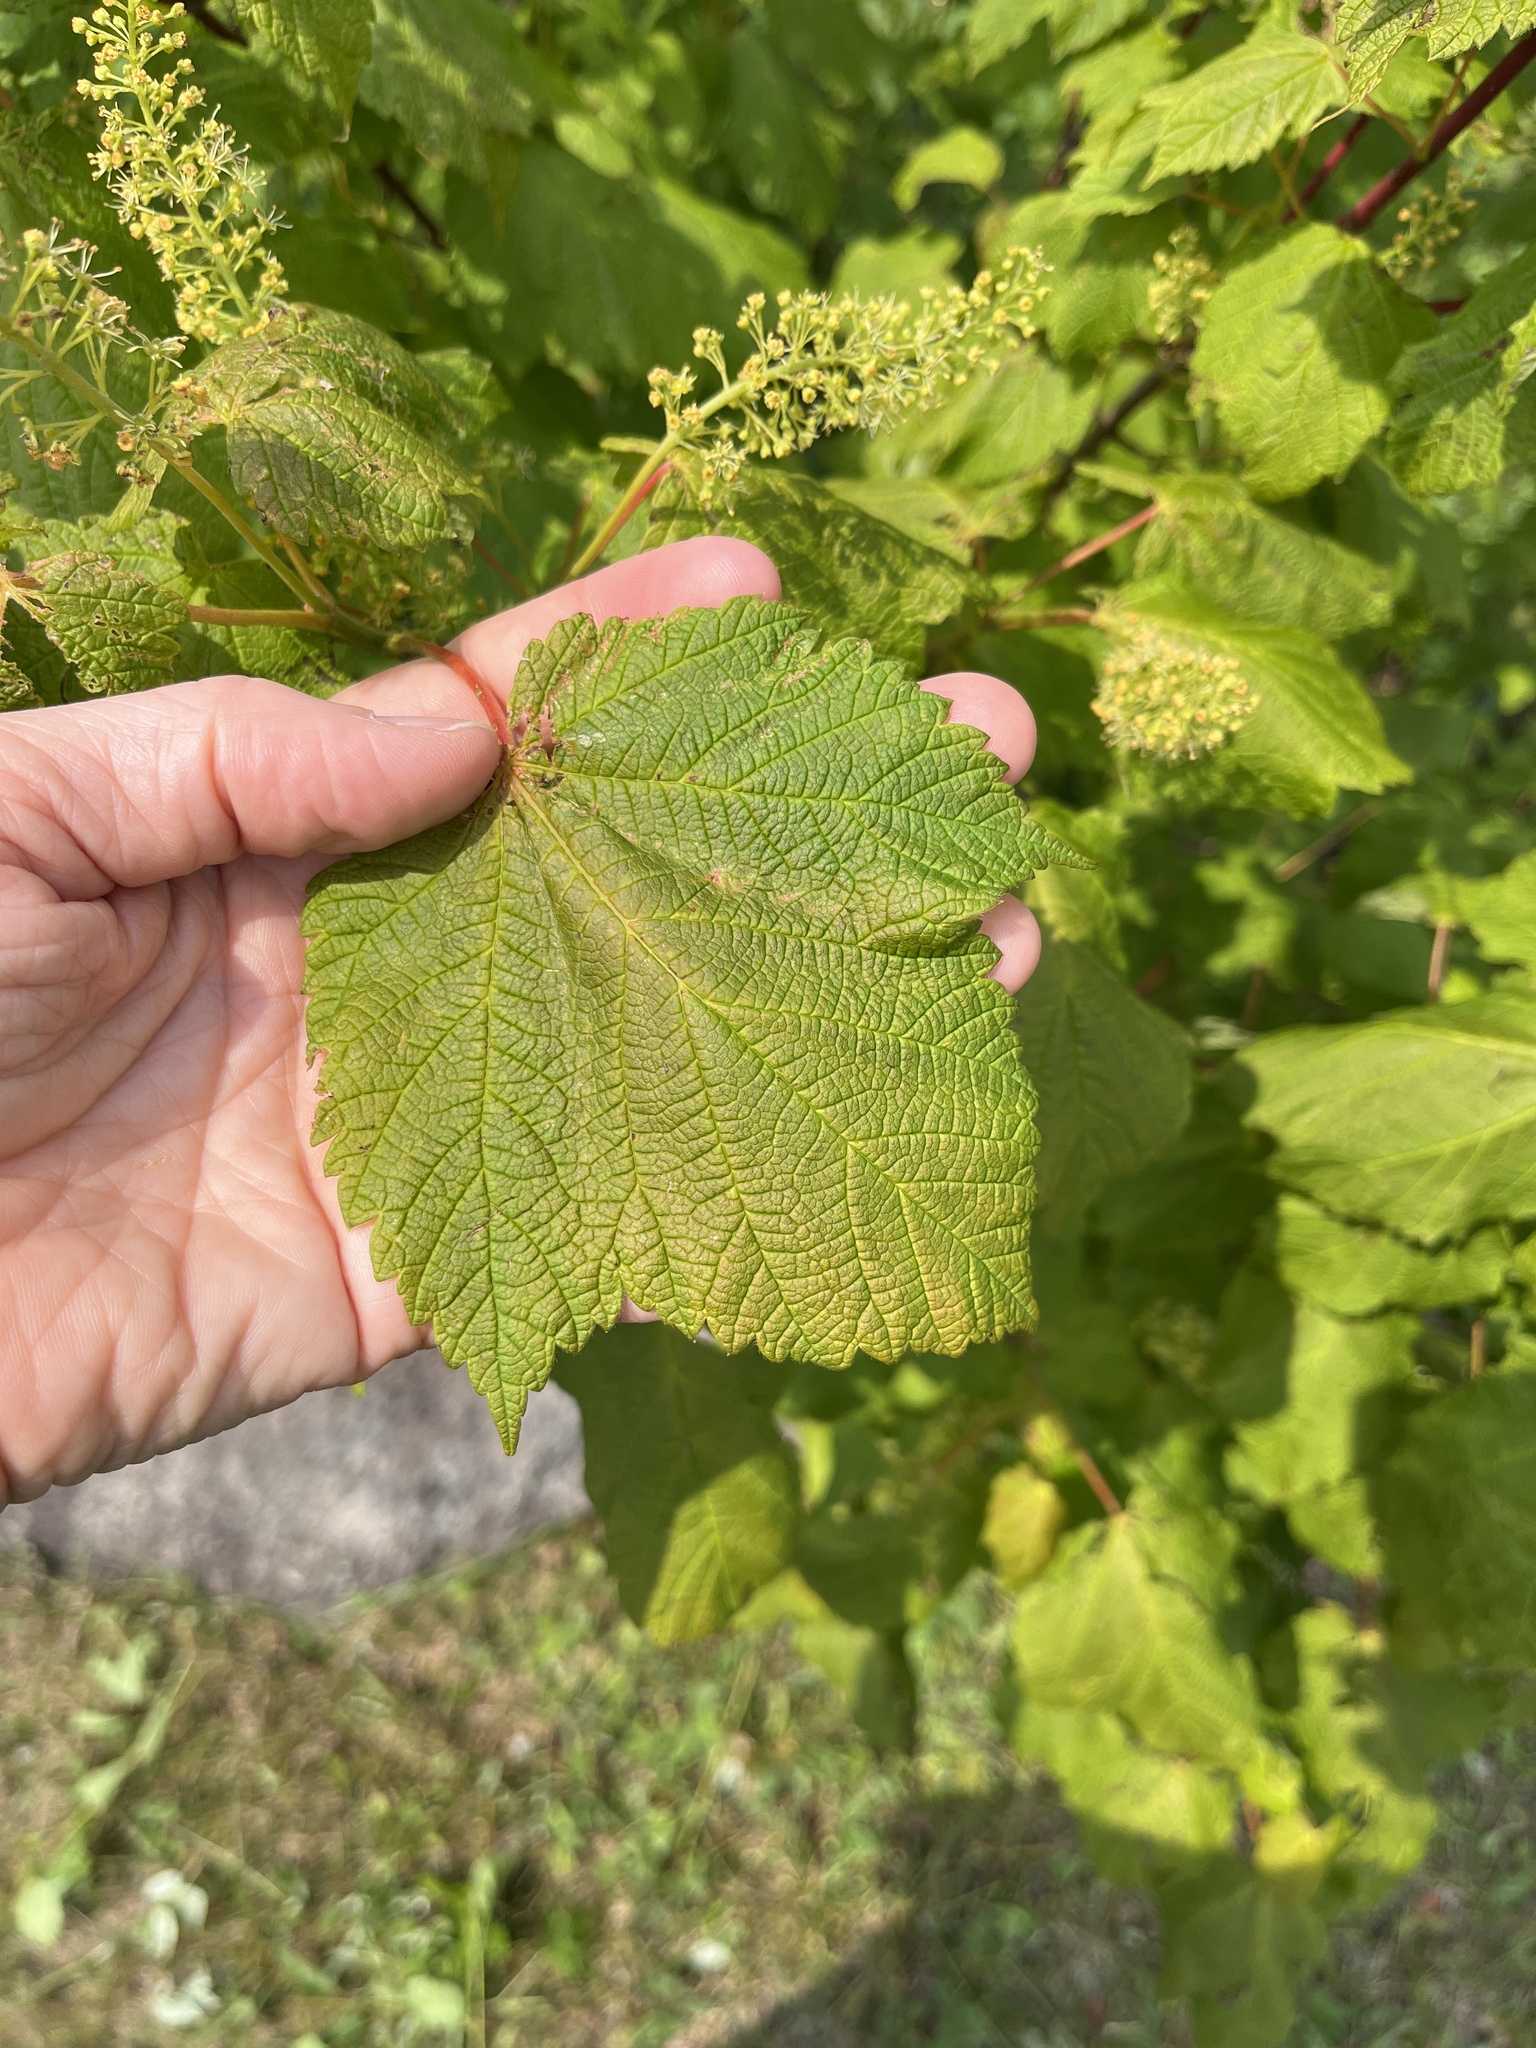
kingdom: Plantae
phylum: Tracheophyta
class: Magnoliopsida
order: Sapindales
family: Sapindaceae
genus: Acer
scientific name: Acer spicatum
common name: Mountain maple
